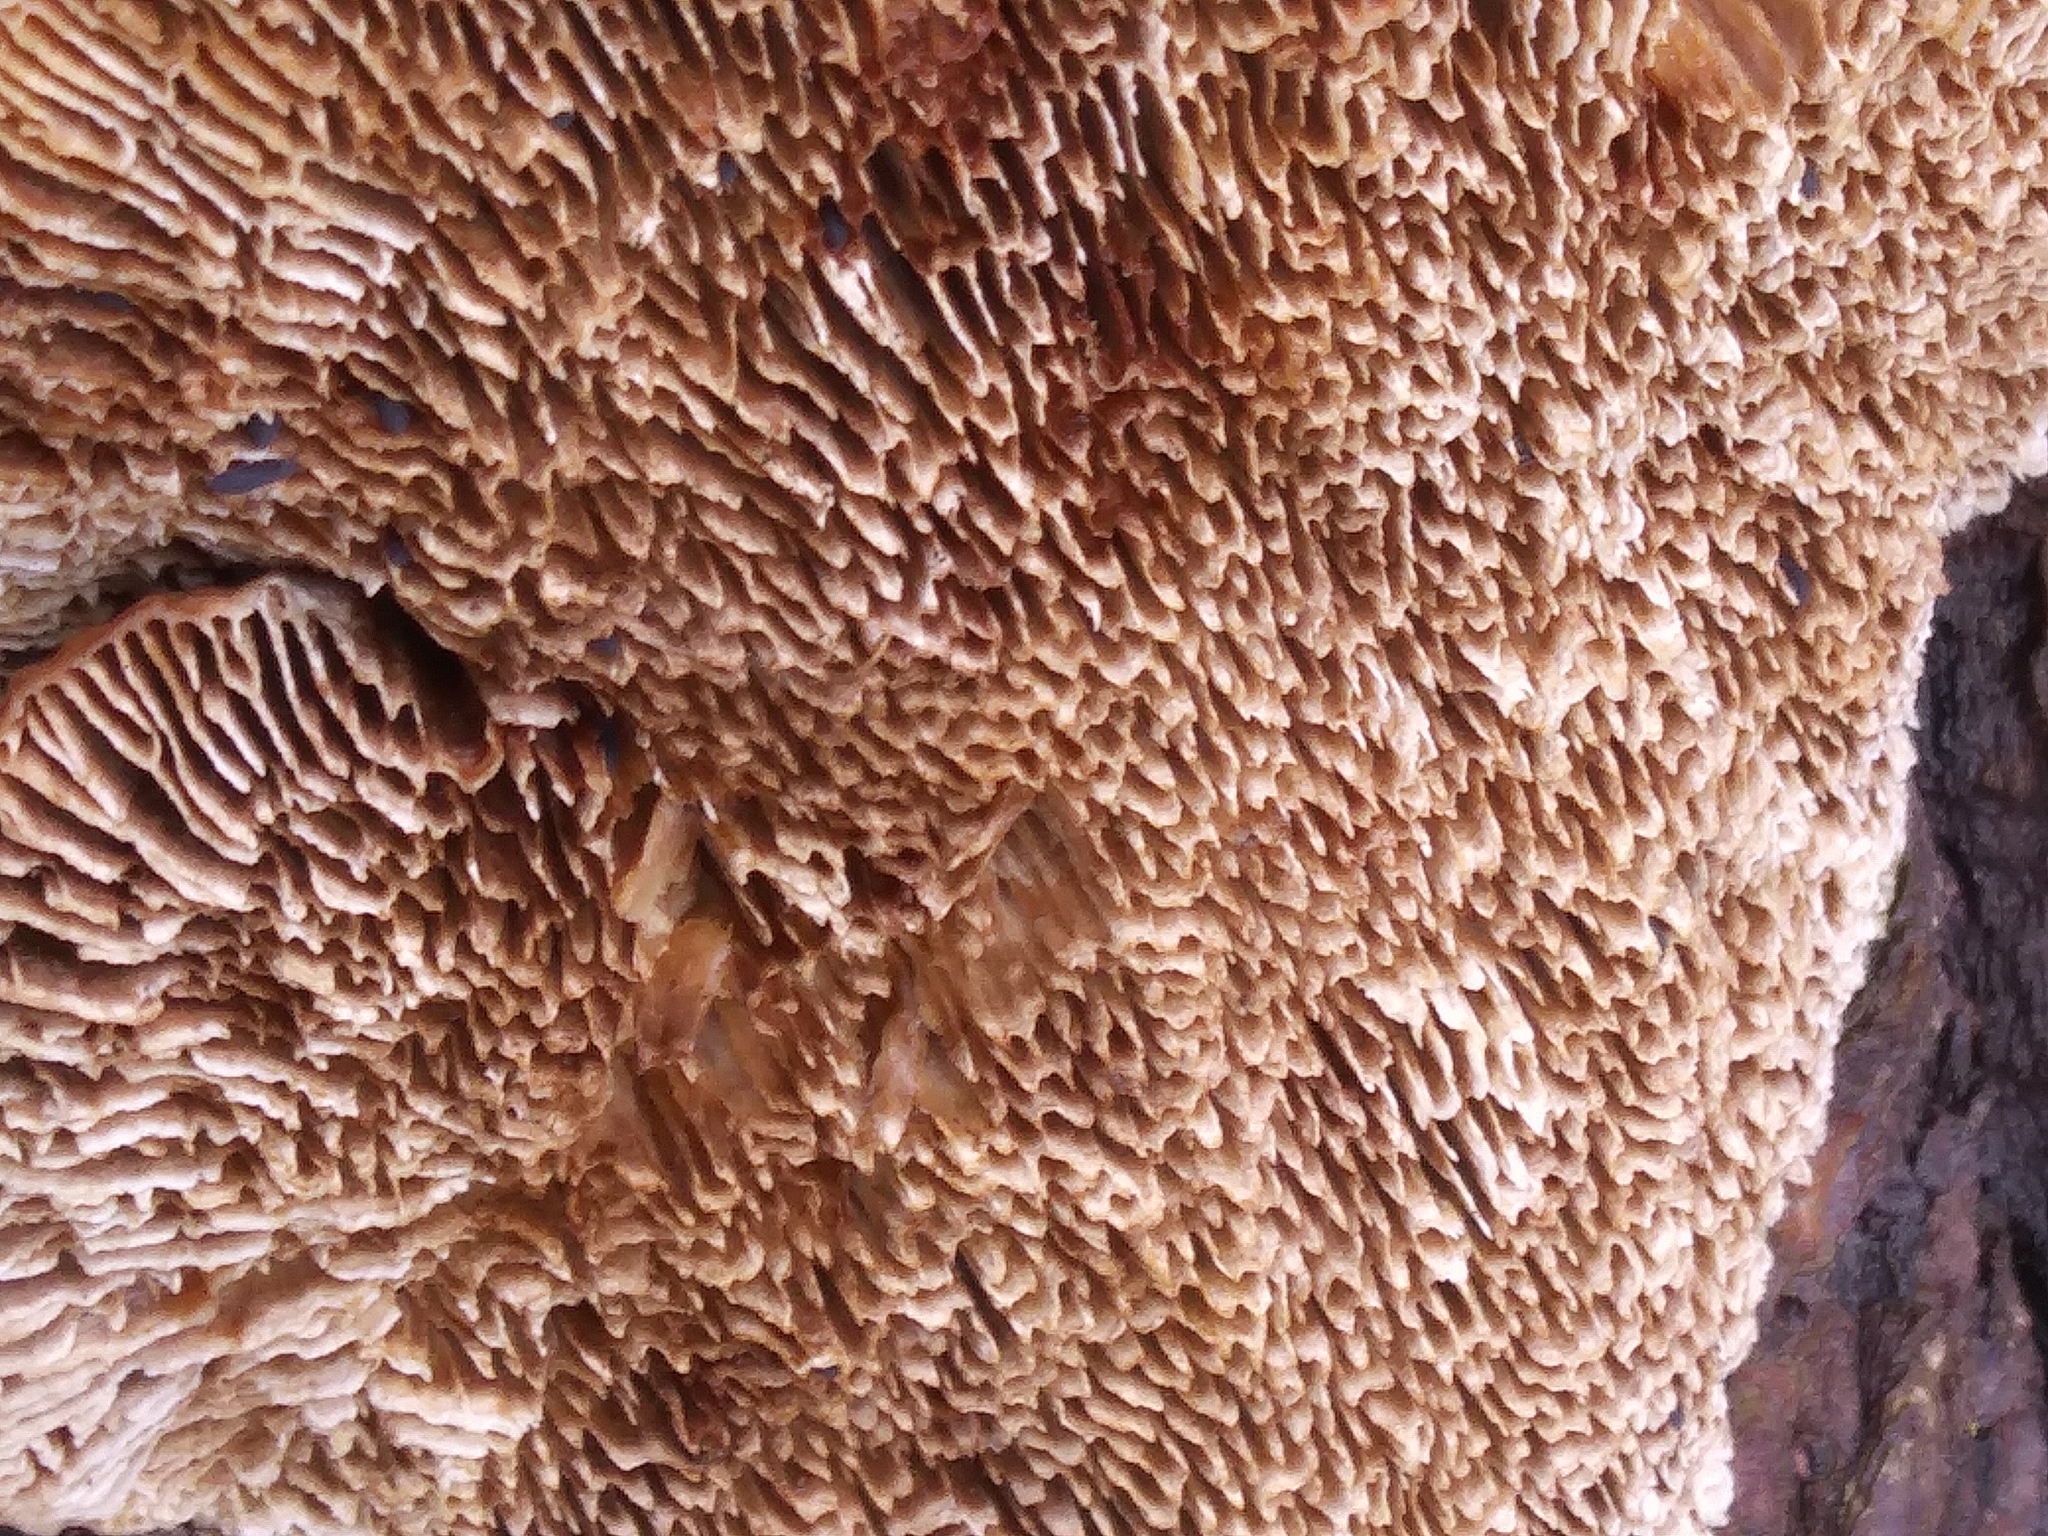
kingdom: Fungi
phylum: Basidiomycota
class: Agaricomycetes
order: Polyporales
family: Polyporaceae
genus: Daedaleopsis
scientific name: Daedaleopsis confragosa
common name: Blushing bracket
